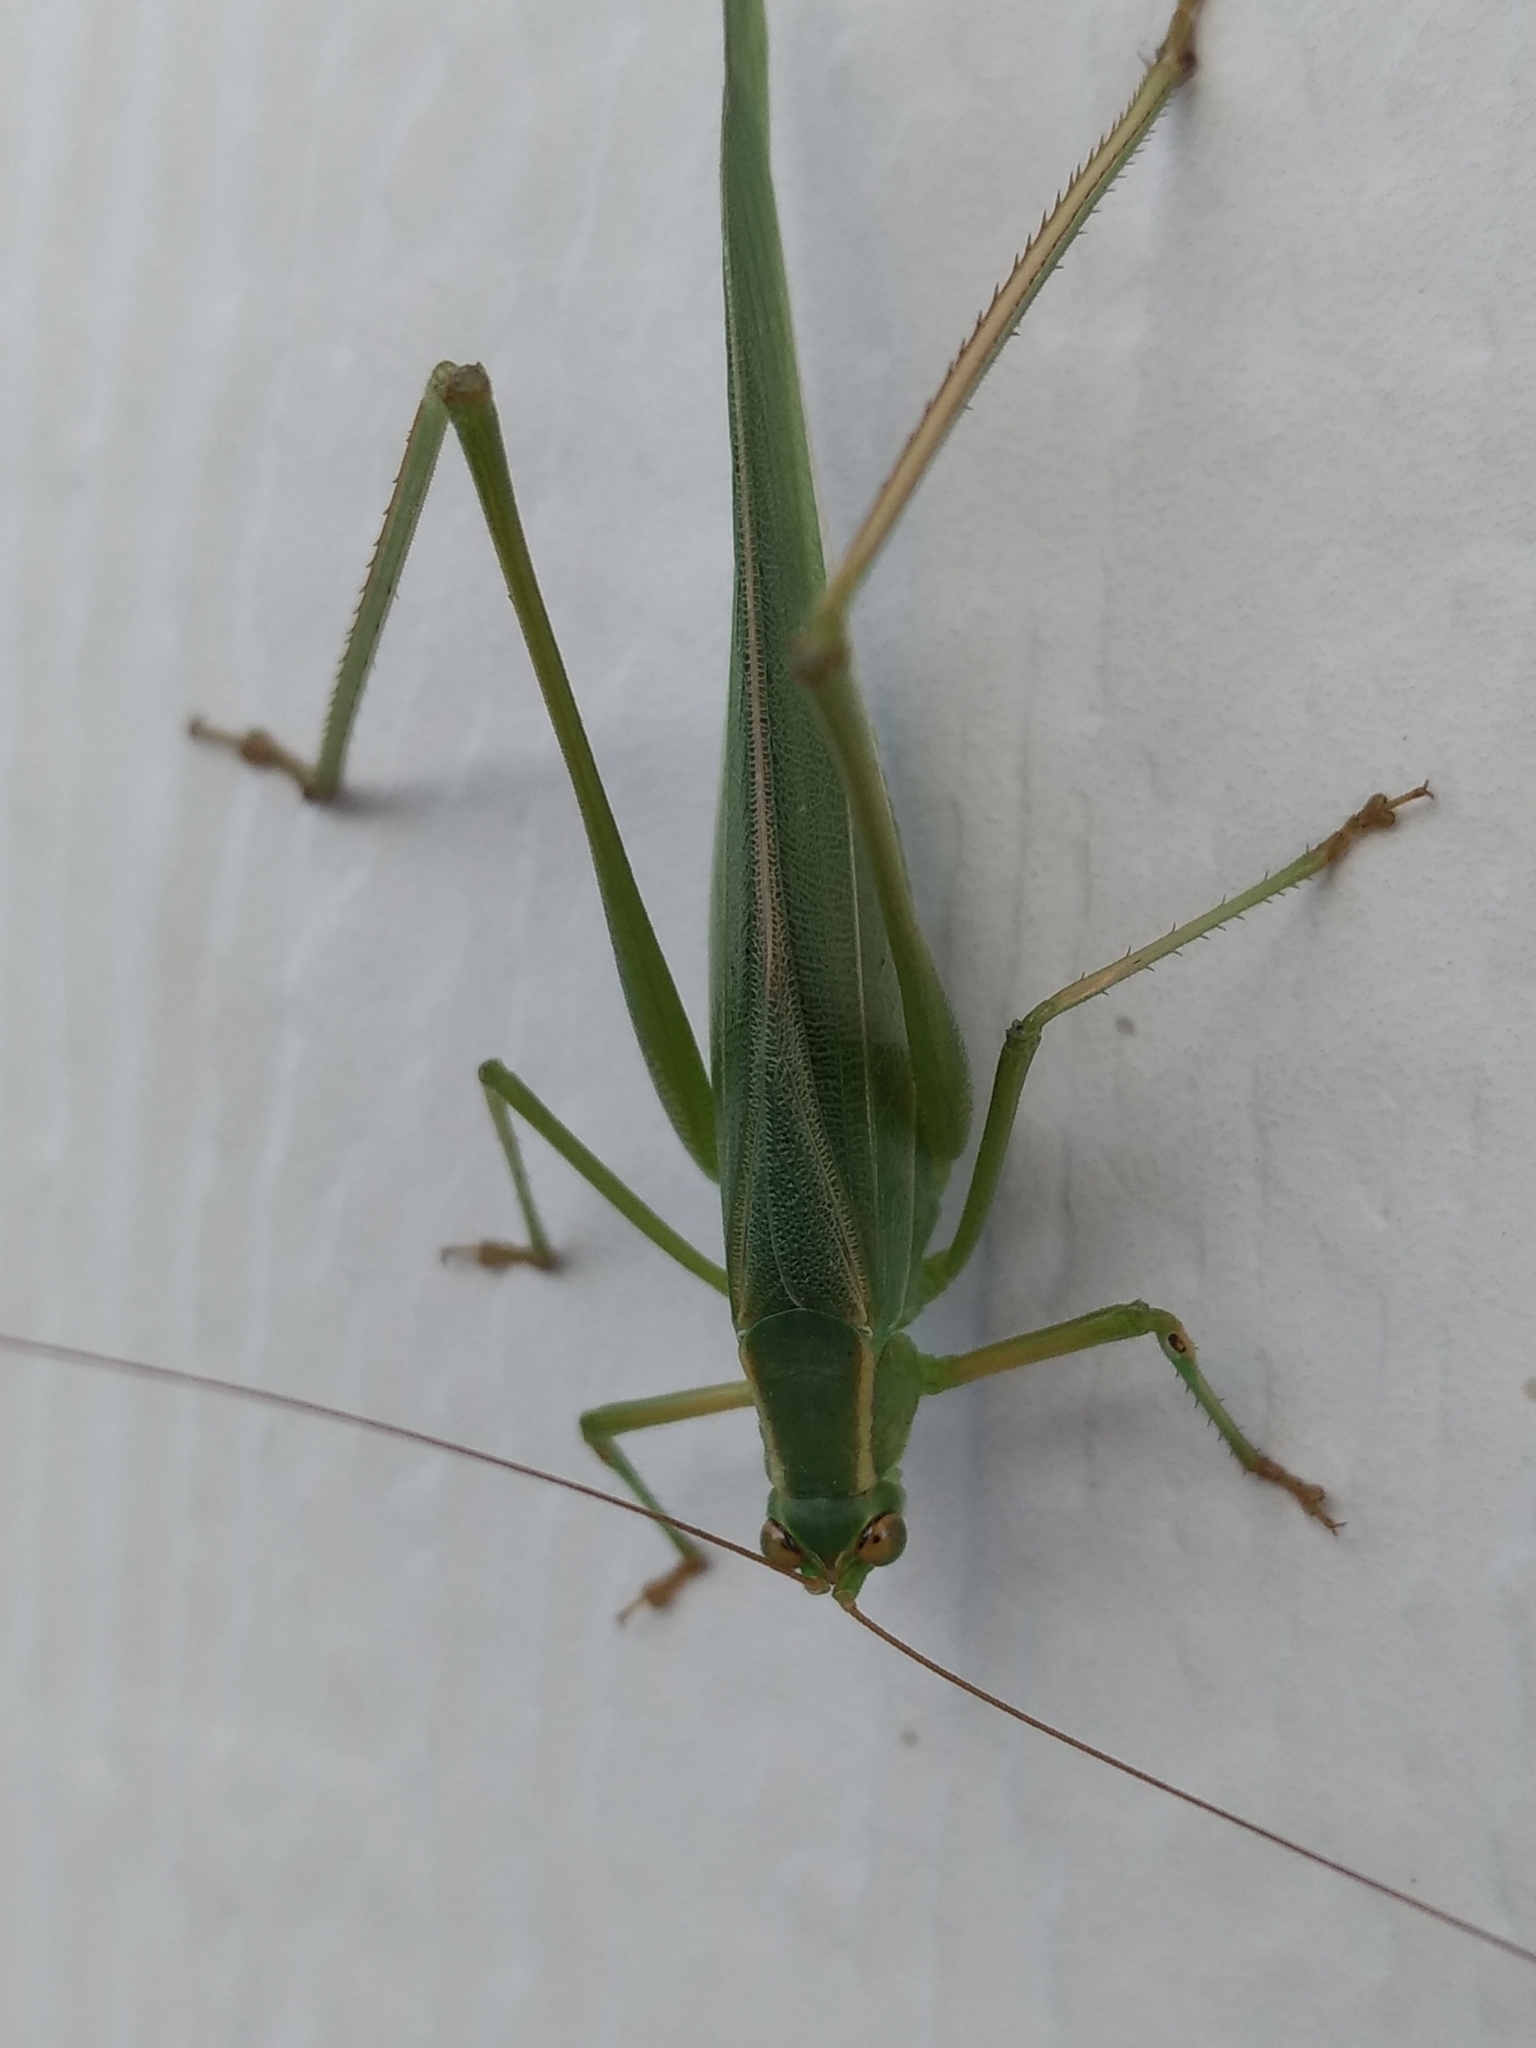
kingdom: Animalia
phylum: Arthropoda
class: Insecta
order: Orthoptera
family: Tettigoniidae
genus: Scudderia
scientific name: Scudderia
